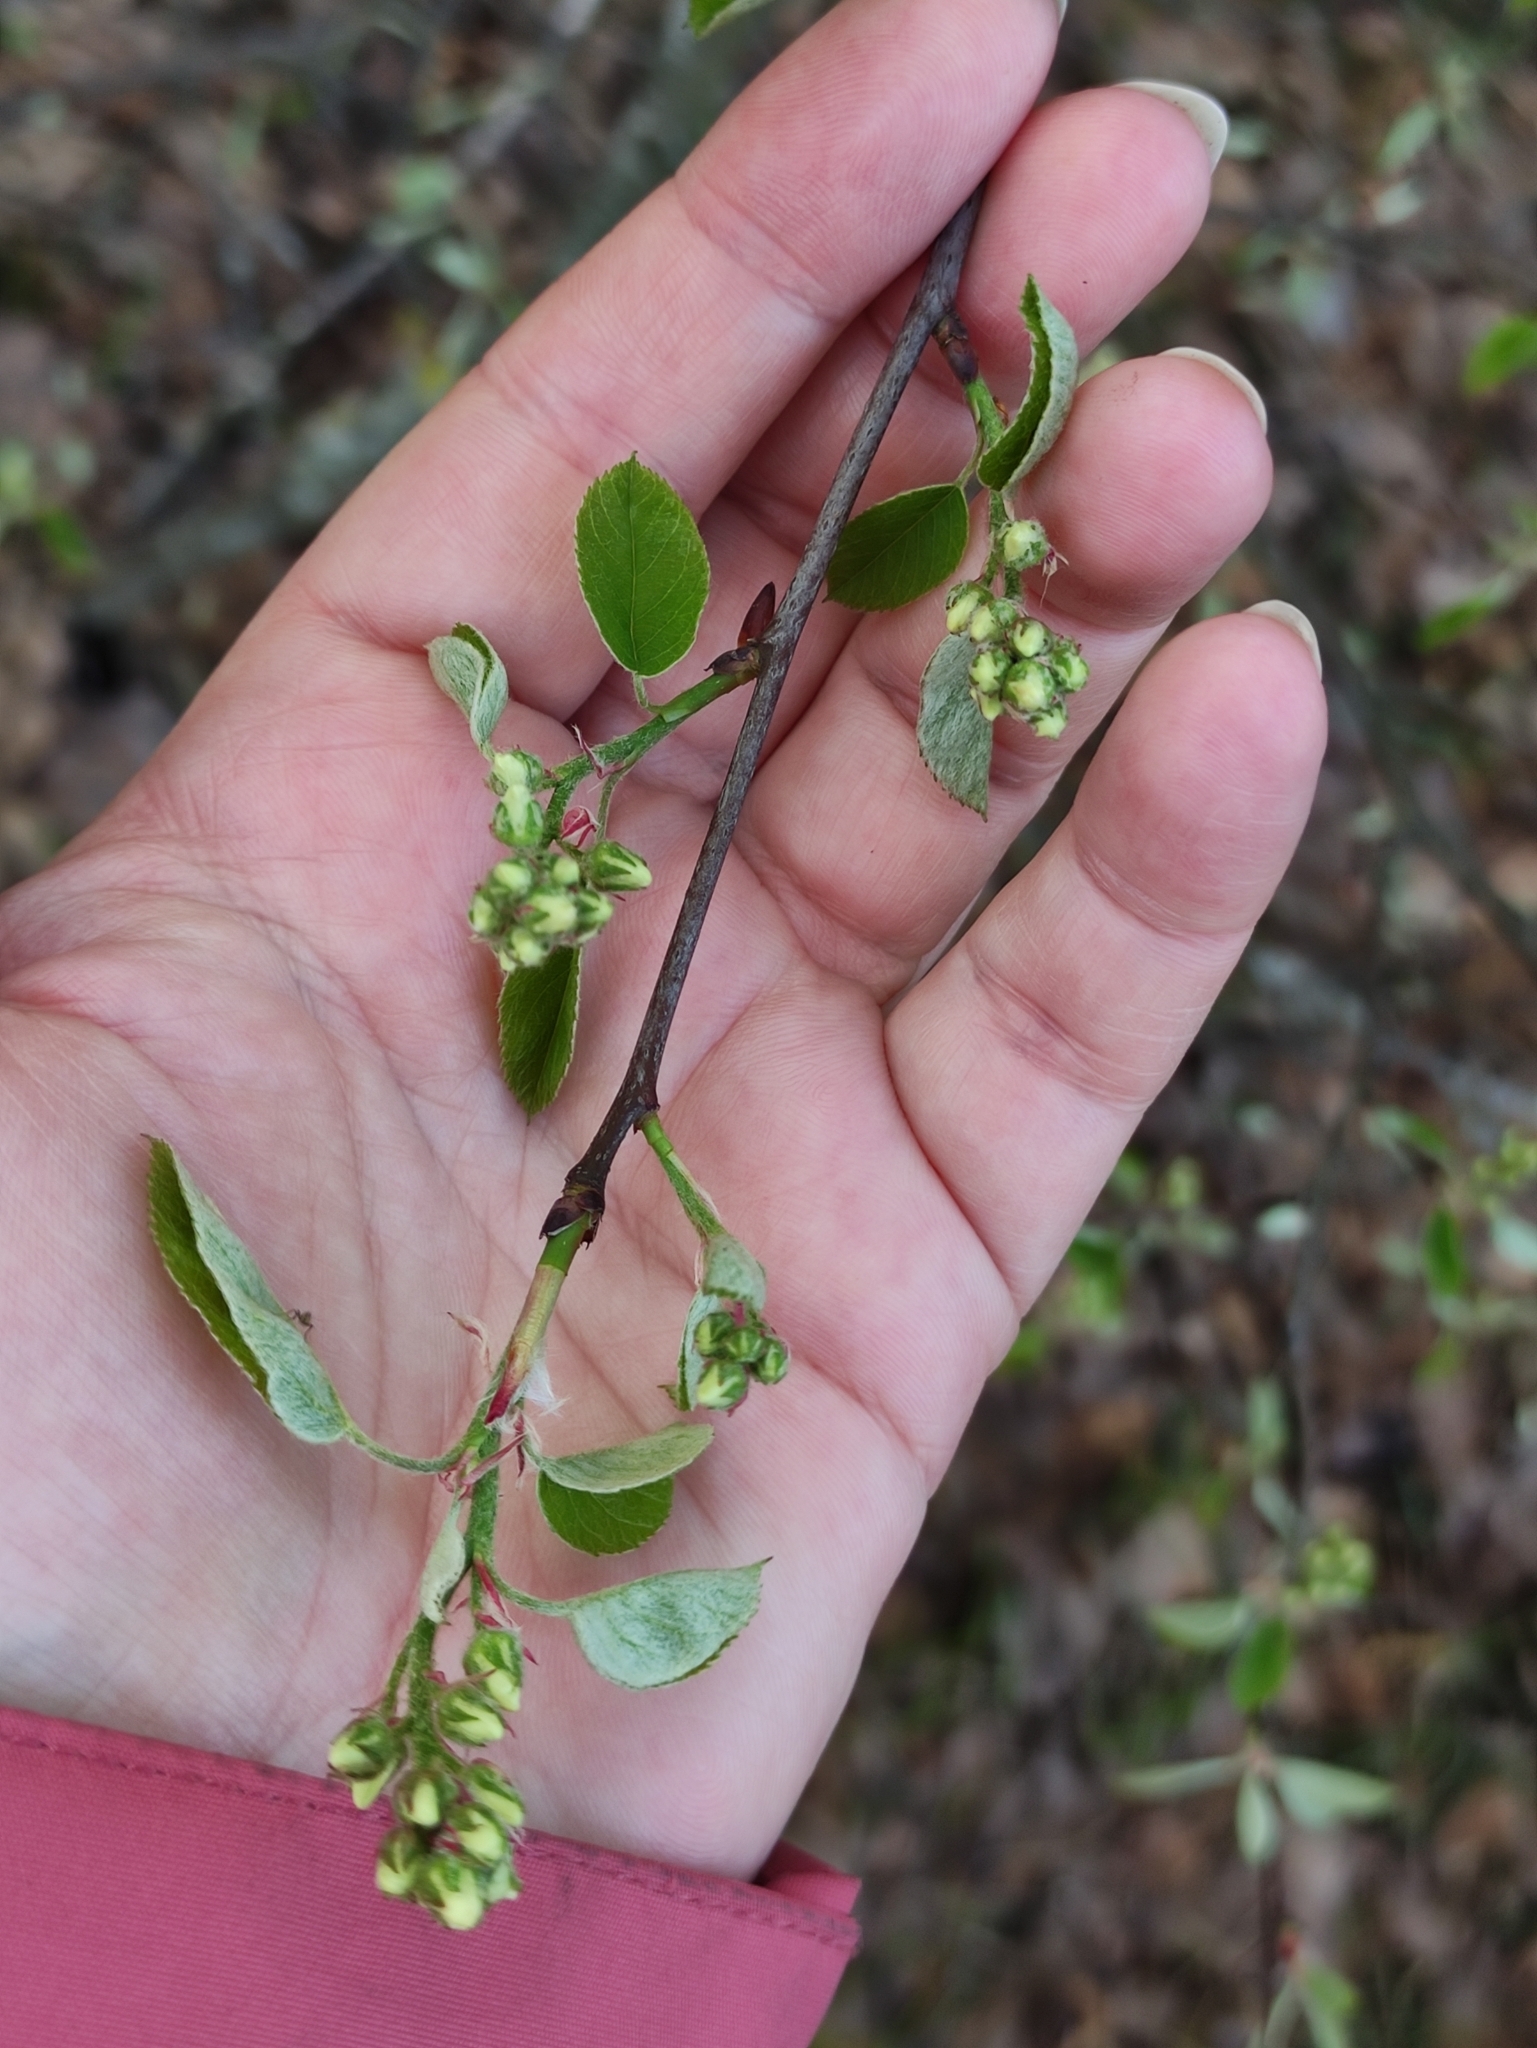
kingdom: Plantae
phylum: Tracheophyta
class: Magnoliopsida
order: Rosales
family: Rosaceae
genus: Amelanchier
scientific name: Amelanchier
